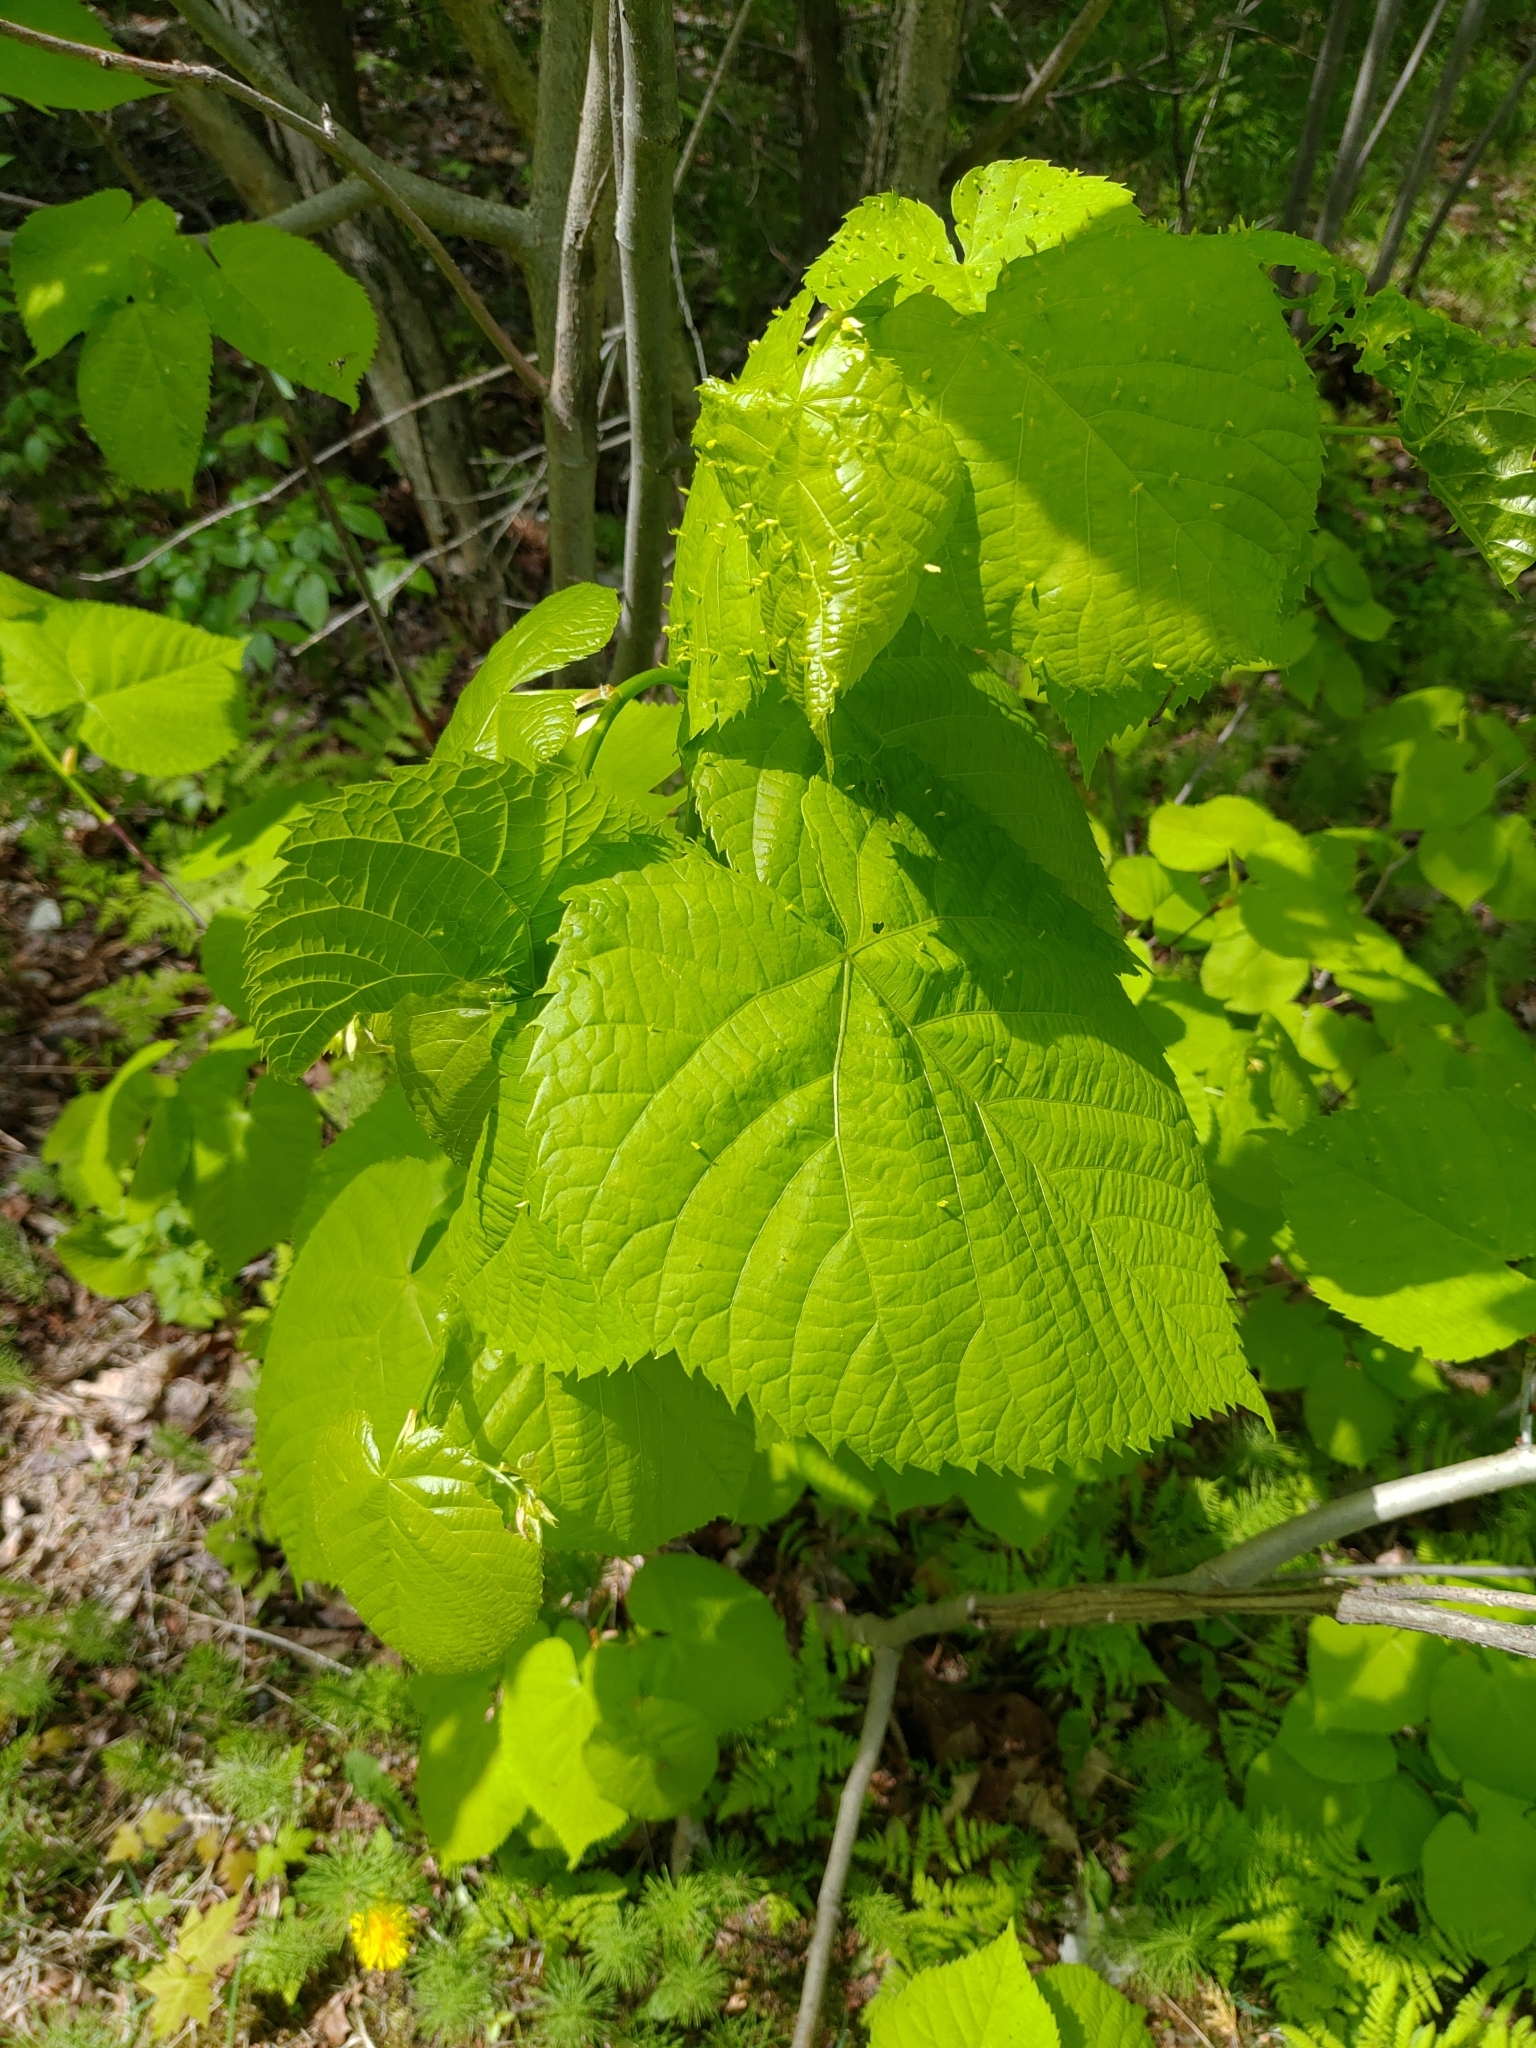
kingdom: Plantae
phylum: Tracheophyta
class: Magnoliopsida
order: Malvales
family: Malvaceae
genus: Tilia
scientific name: Tilia americana
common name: Basswood
